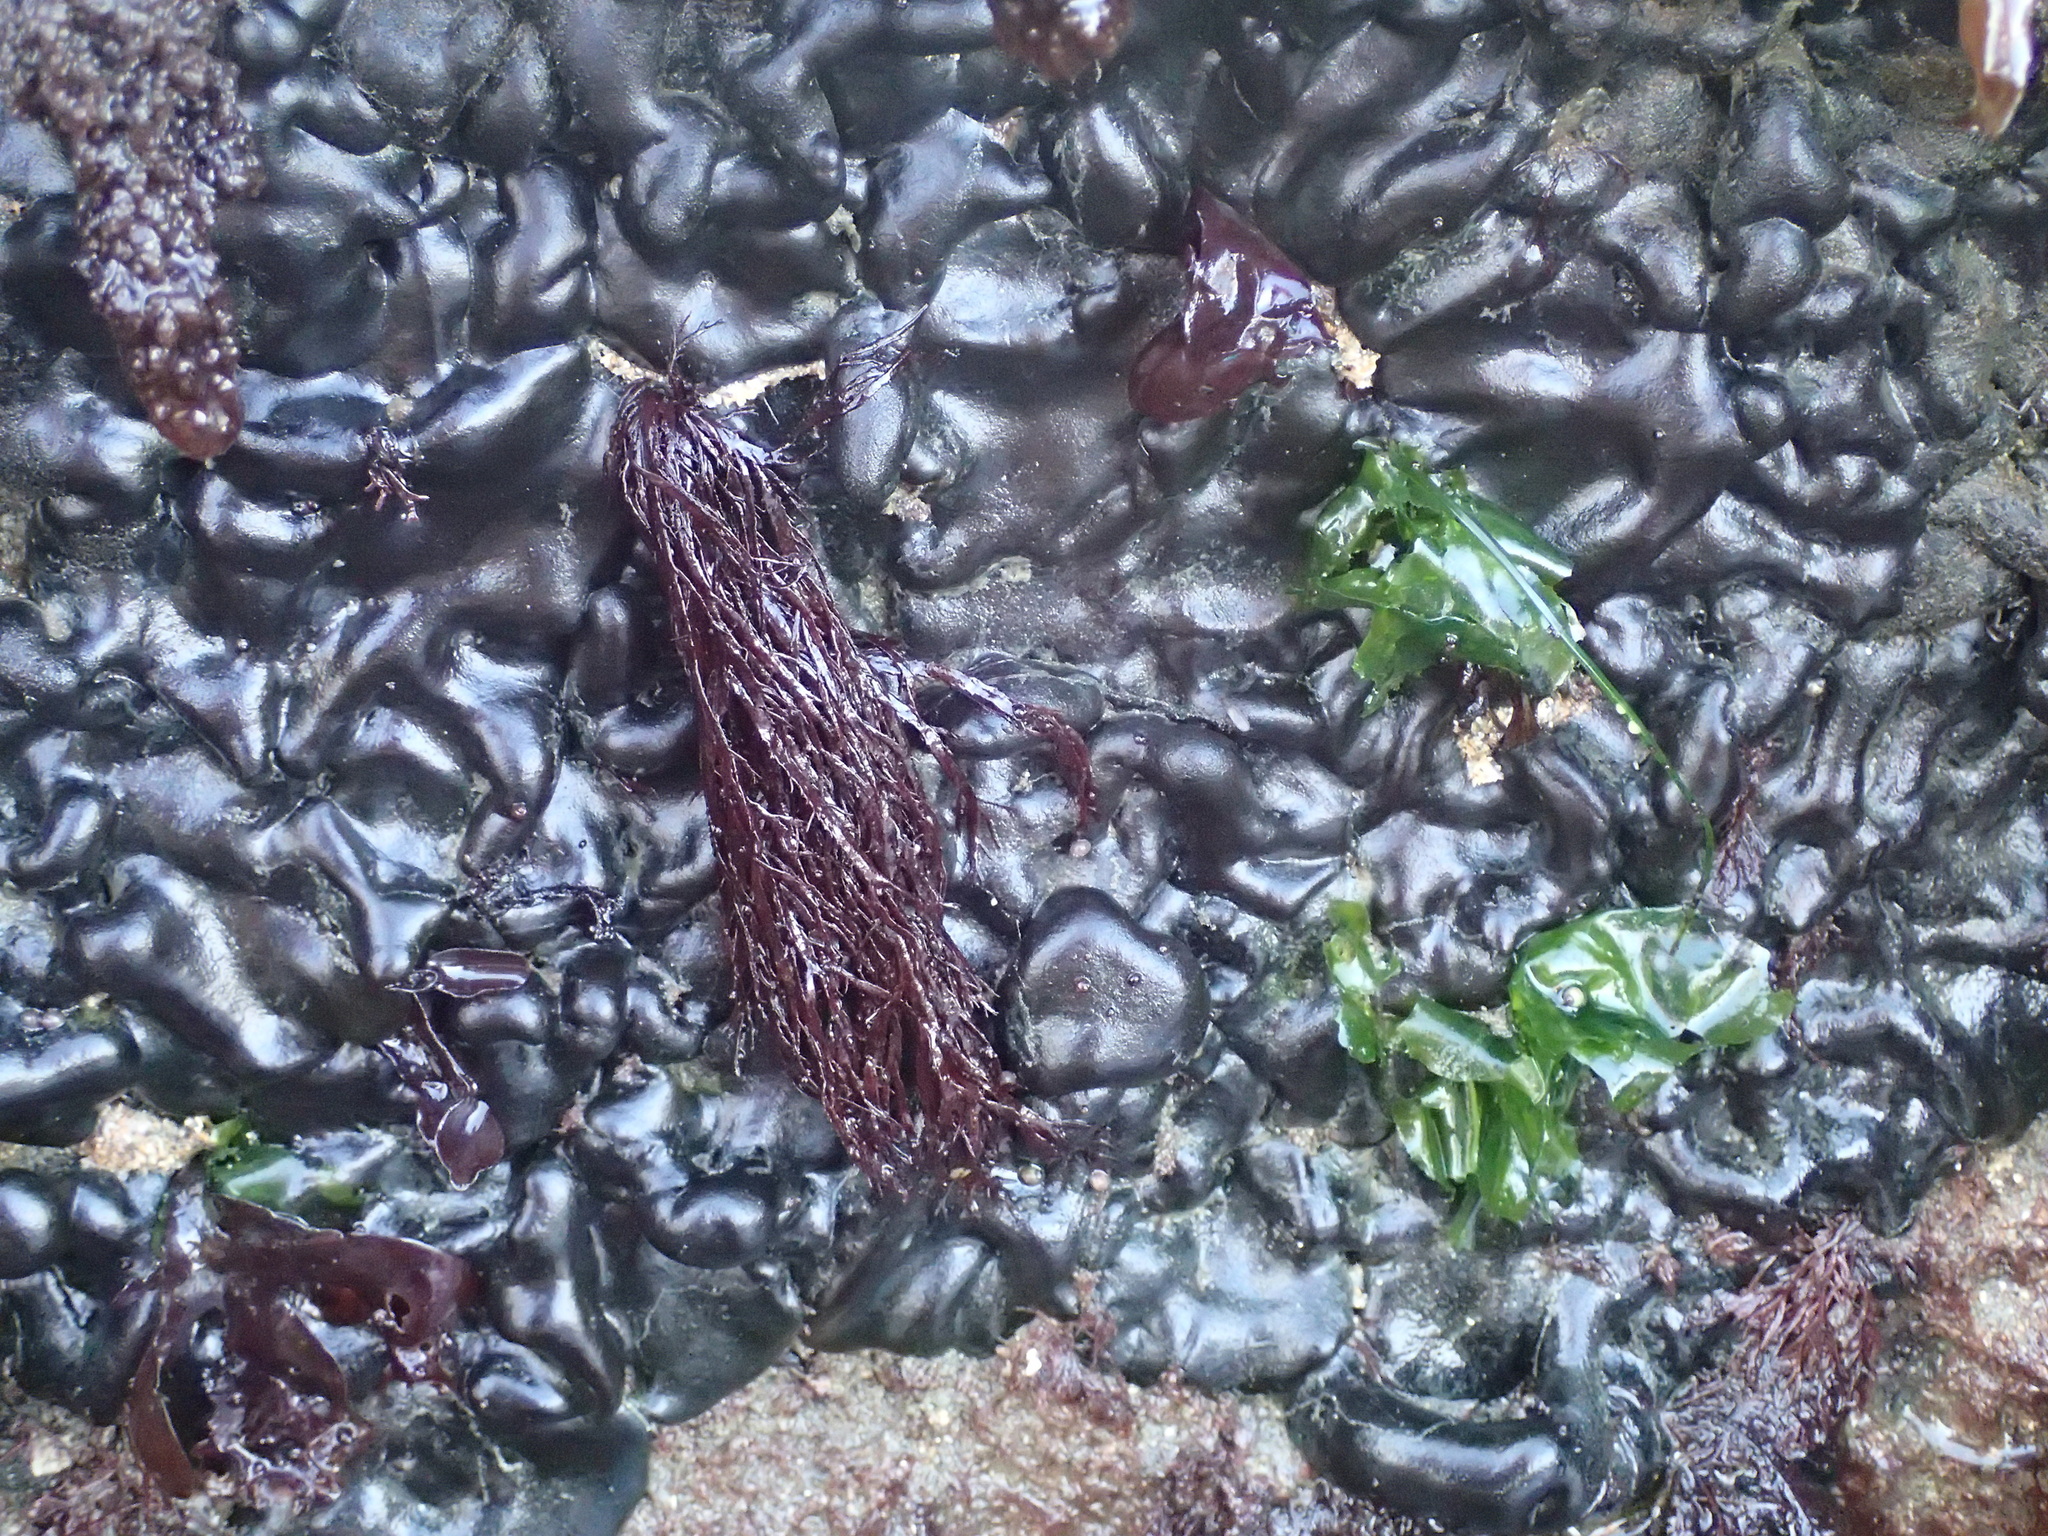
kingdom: Plantae
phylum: Chlorophyta
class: Ulvophyceae
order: Bryopsidales
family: Codiaceae
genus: Codium
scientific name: Codium setchellii
